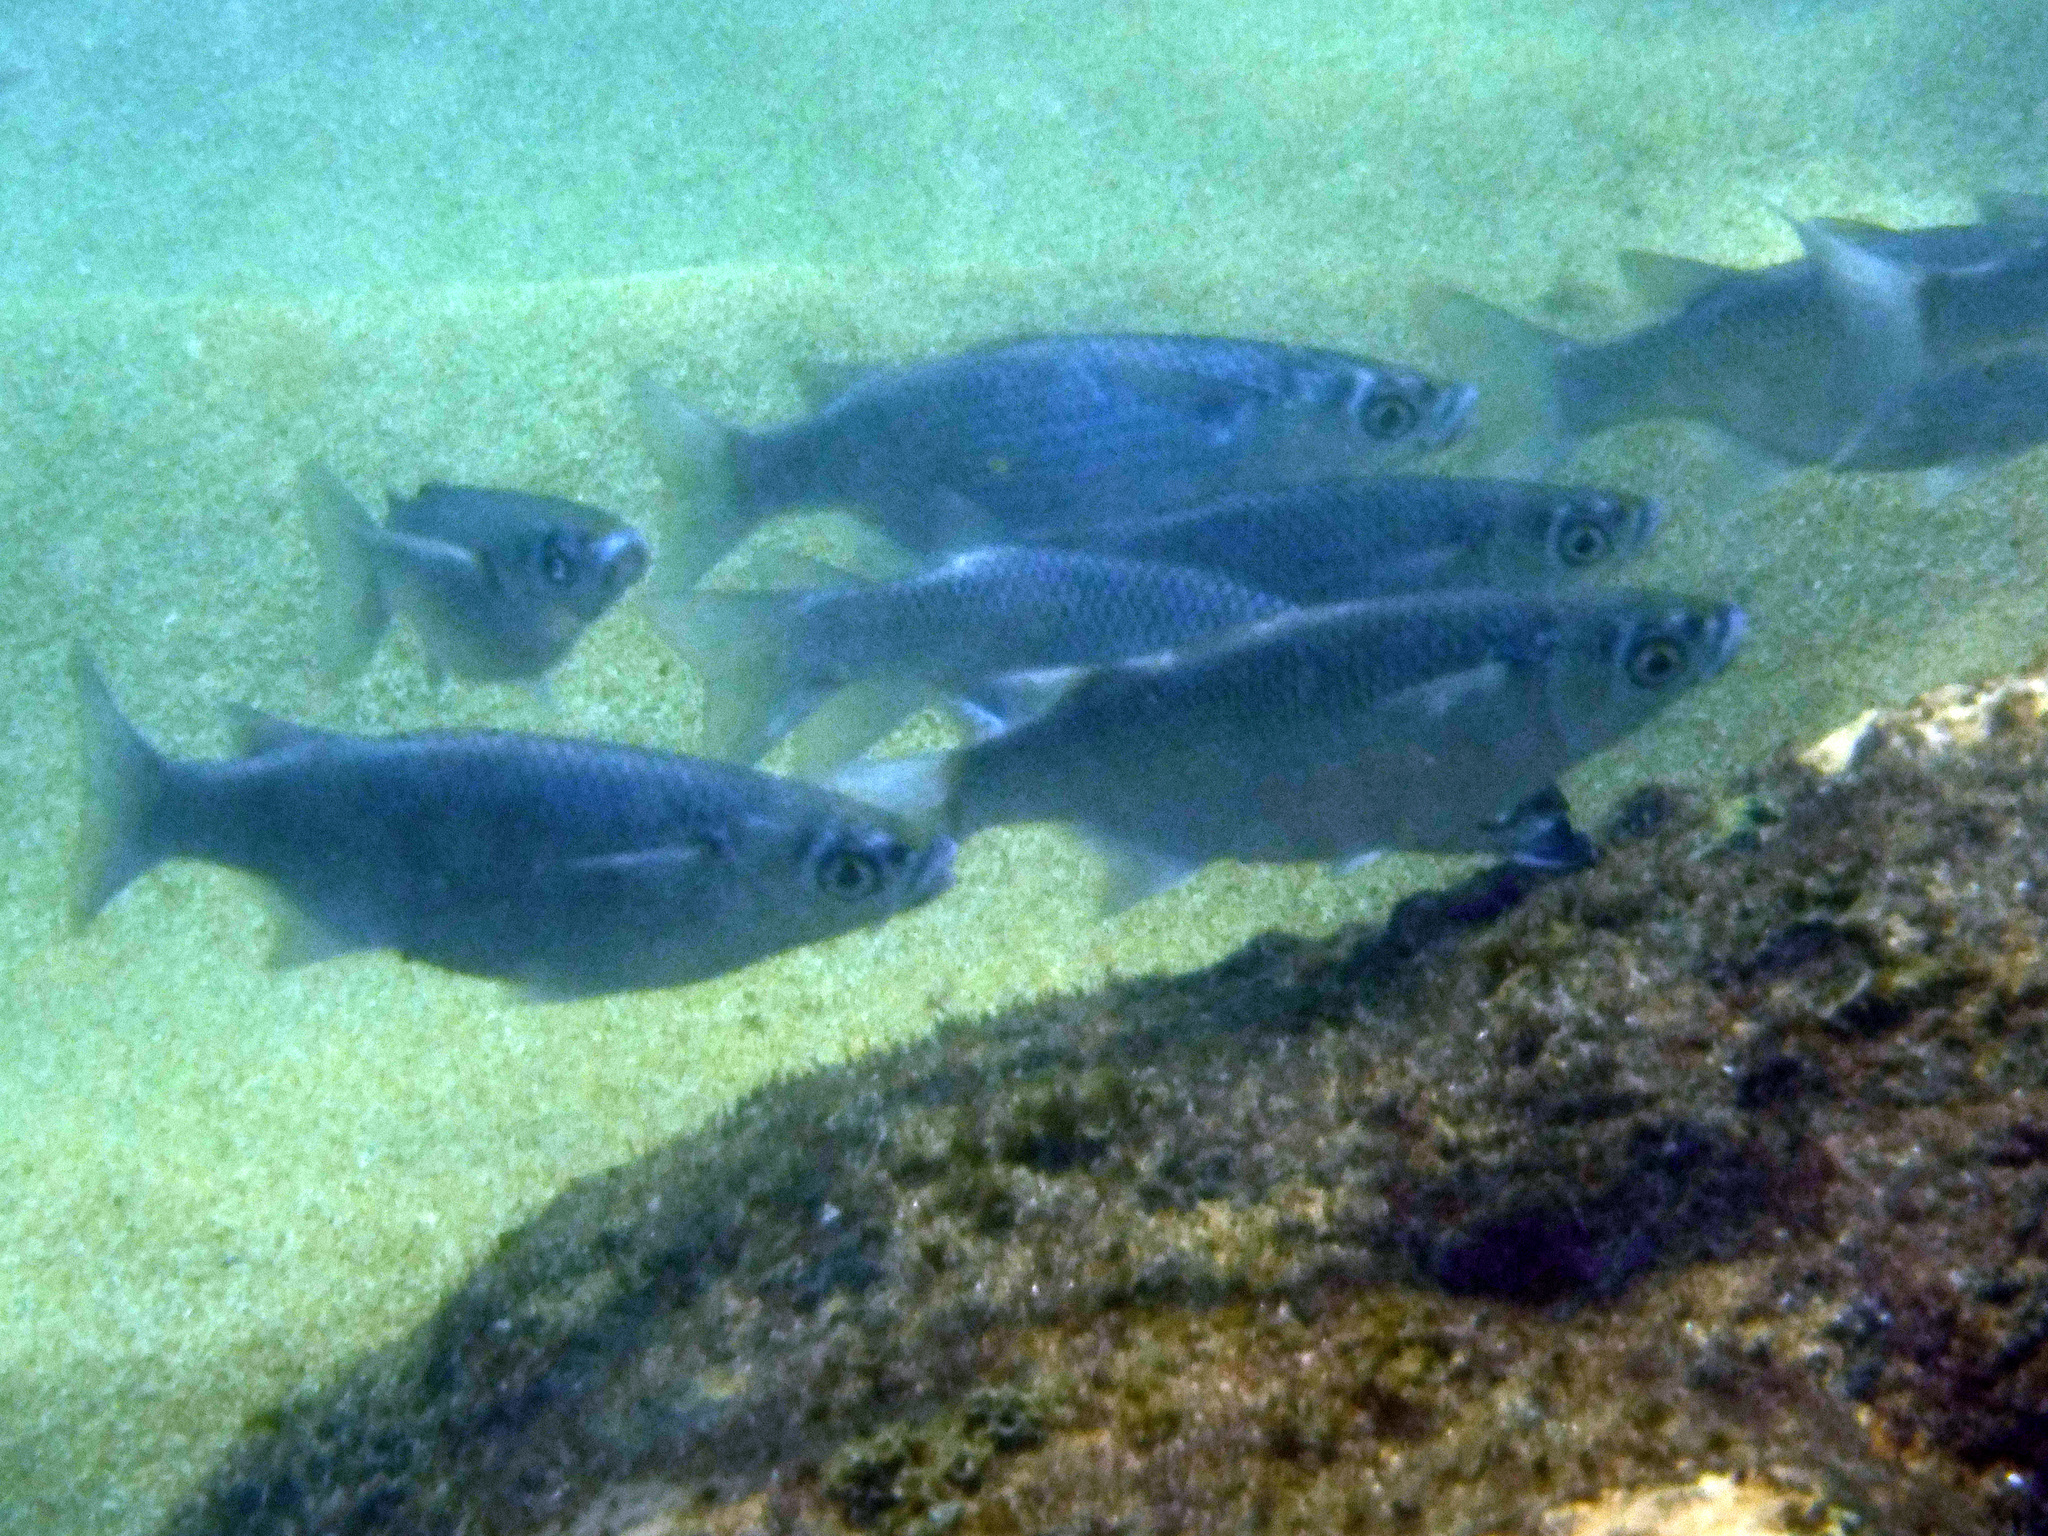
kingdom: Animalia
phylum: Chordata
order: Mugiliformes
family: Mugilidae
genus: Chaenomugil
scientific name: Chaenomugil proboscideus
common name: Snouted mullet
